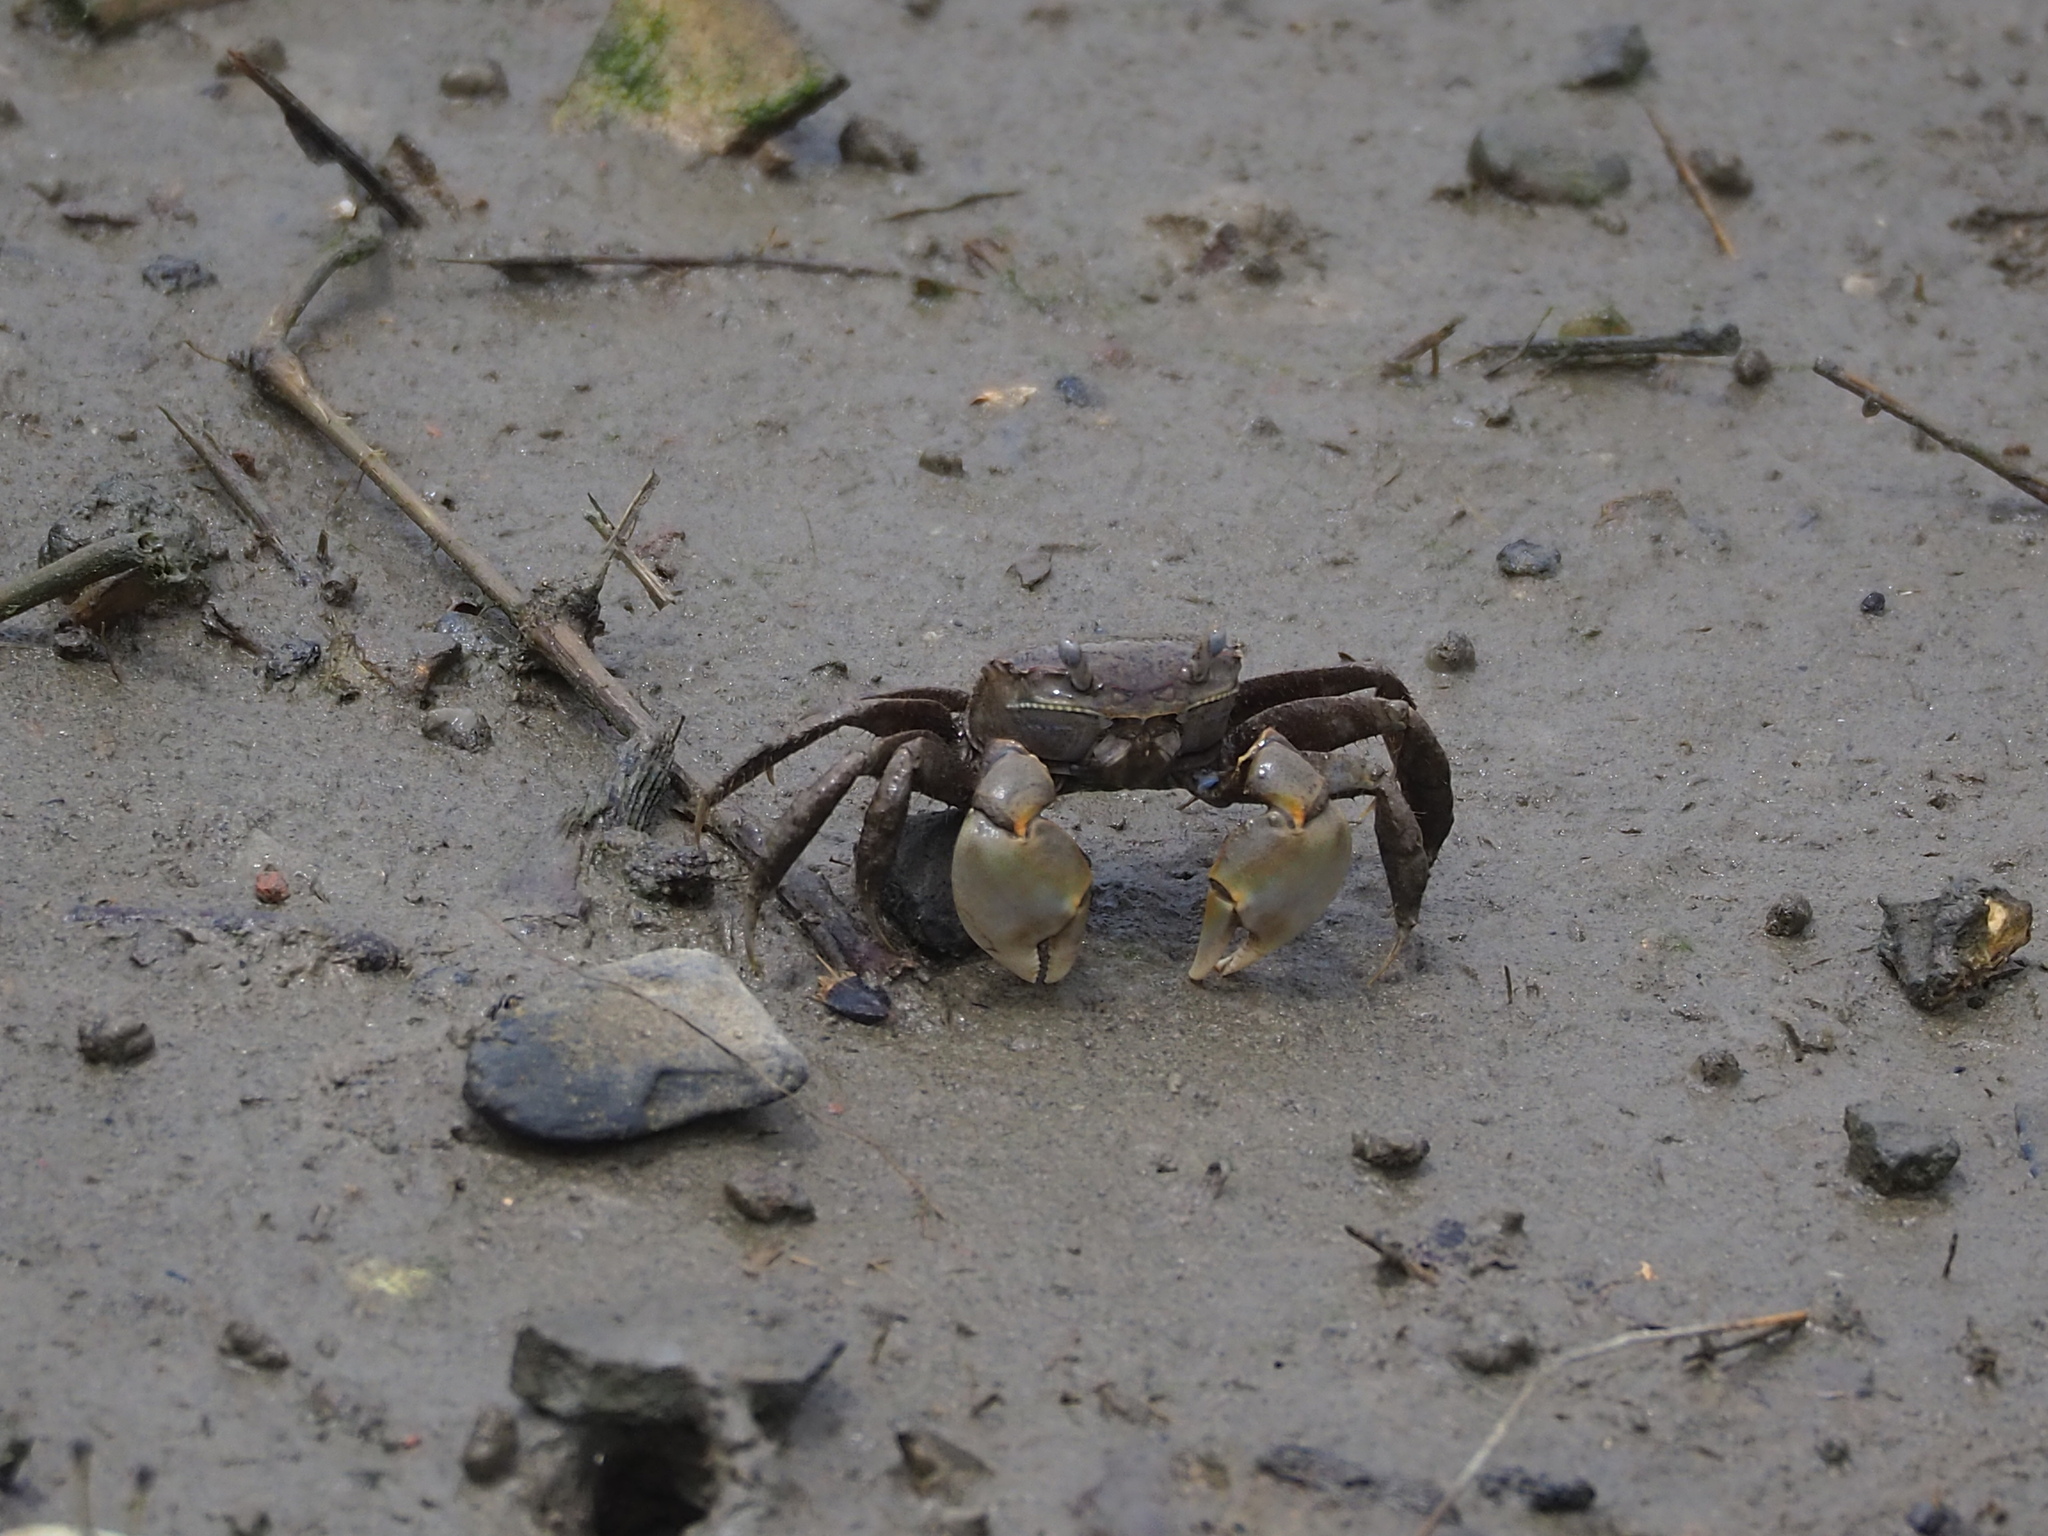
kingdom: Animalia
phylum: Arthropoda
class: Malacostraca
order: Decapoda
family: Varunidae
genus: Helicana
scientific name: Helicana doerjesi
